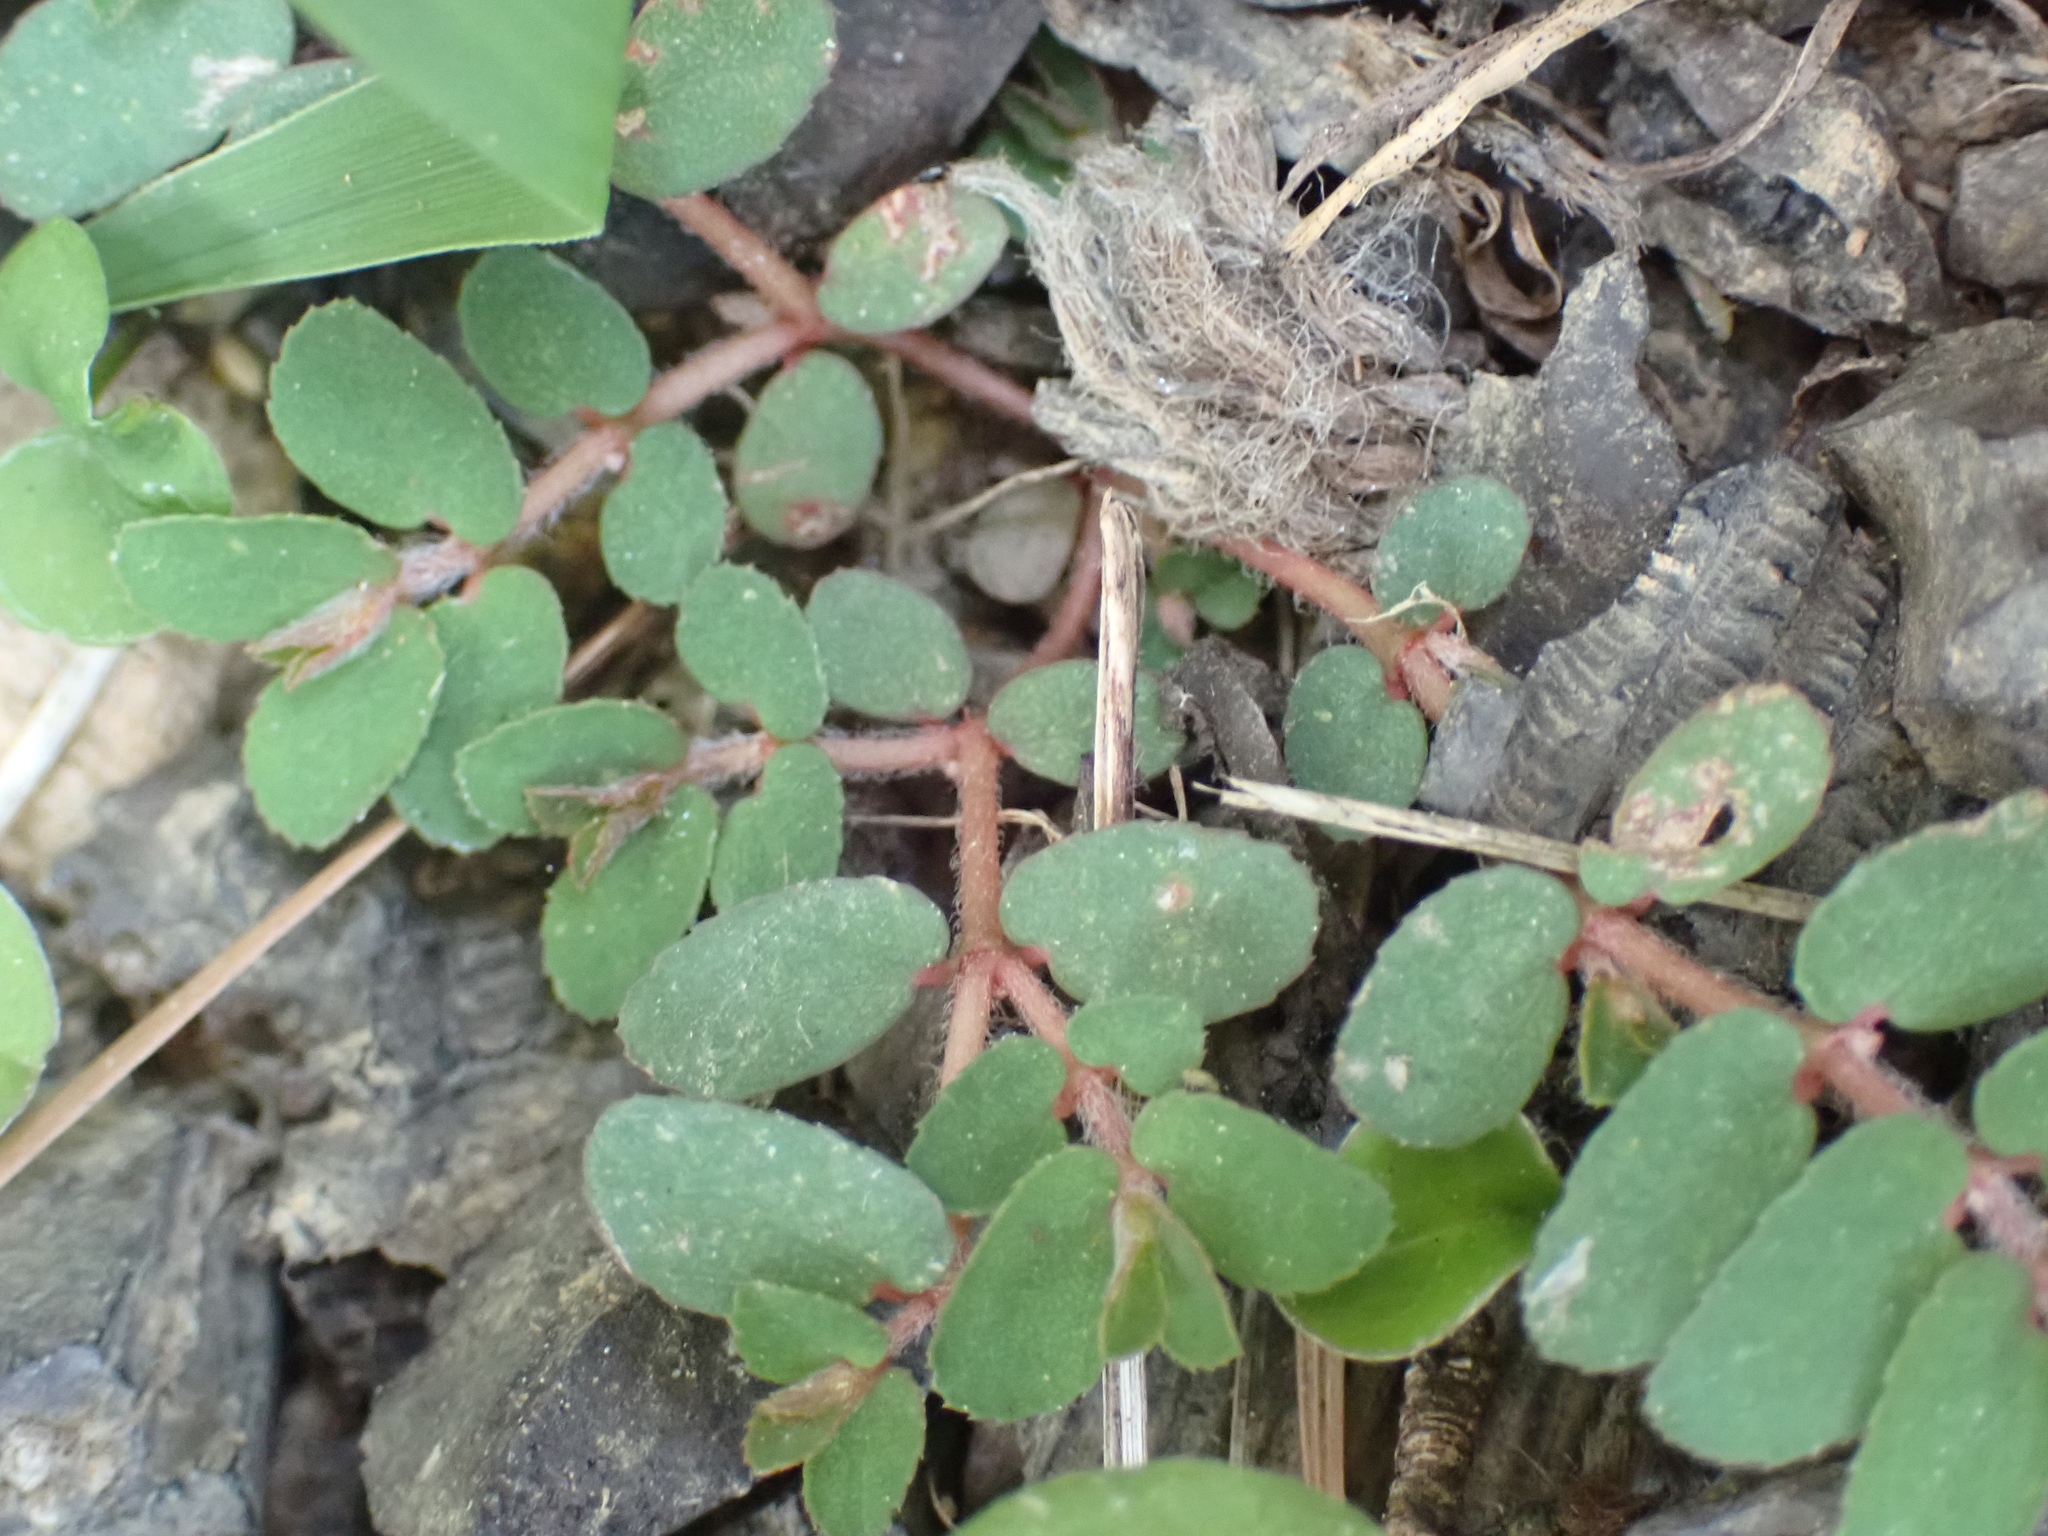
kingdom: Plantae
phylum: Tracheophyta
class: Magnoliopsida
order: Malpighiales
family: Euphorbiaceae
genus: Euphorbia
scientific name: Euphorbia maculata
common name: Spotted spurge
